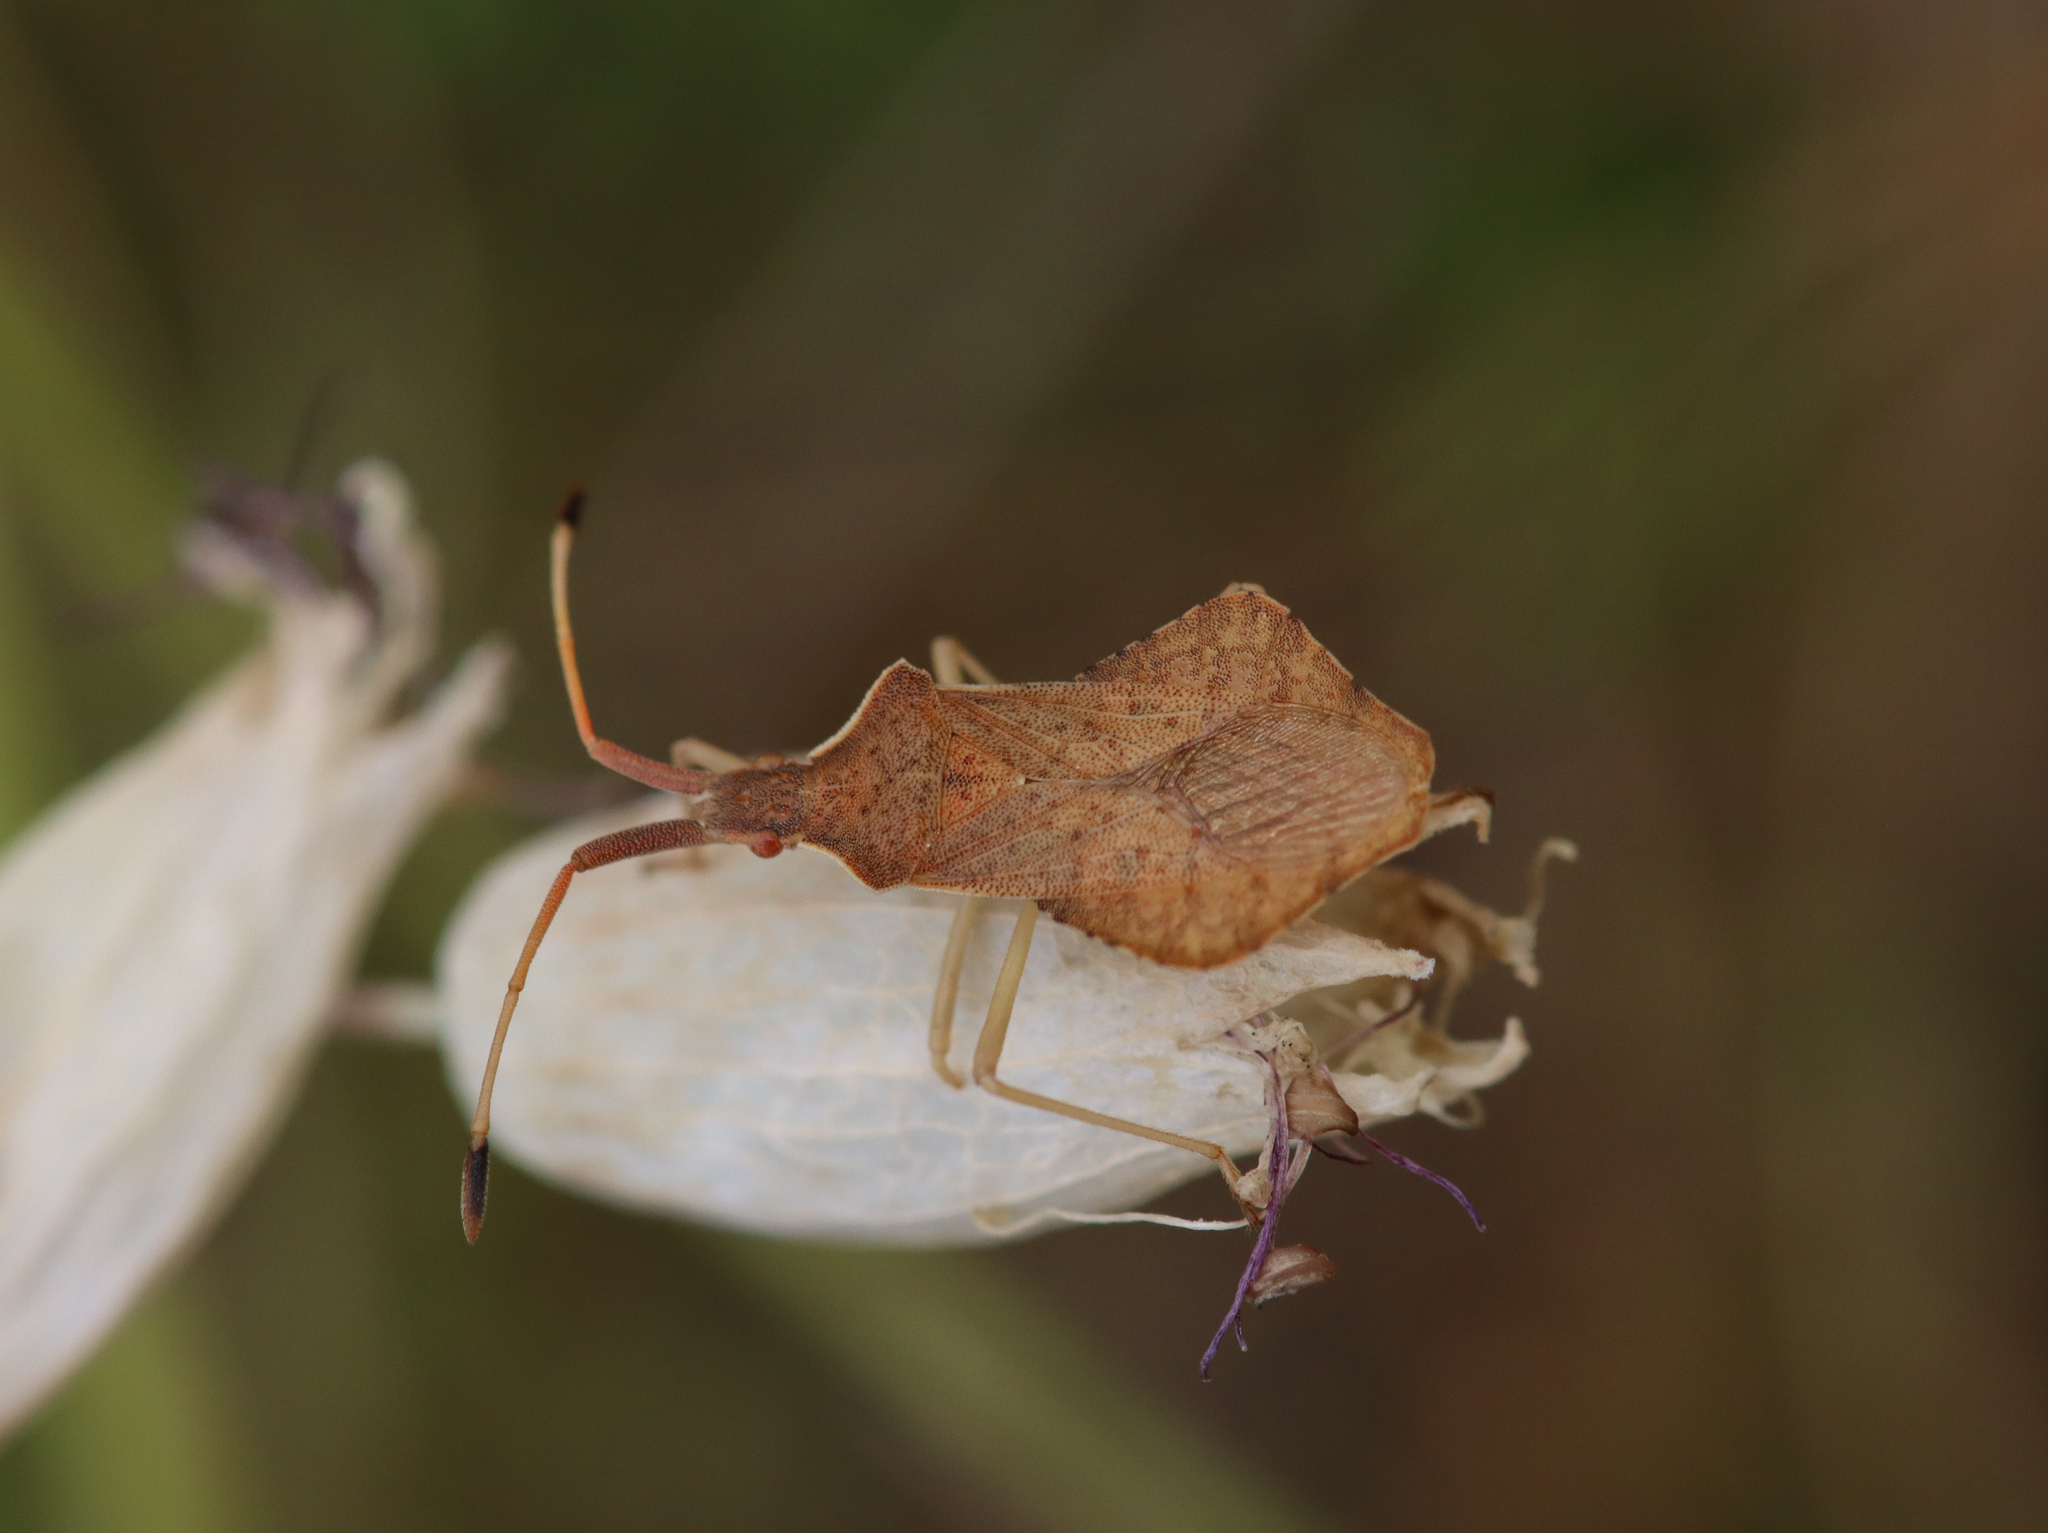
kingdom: Animalia
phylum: Arthropoda
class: Insecta
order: Hemiptera
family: Coreidae
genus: Syromastus
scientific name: Syromastus rhombeus
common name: Rhombic leatherbug
